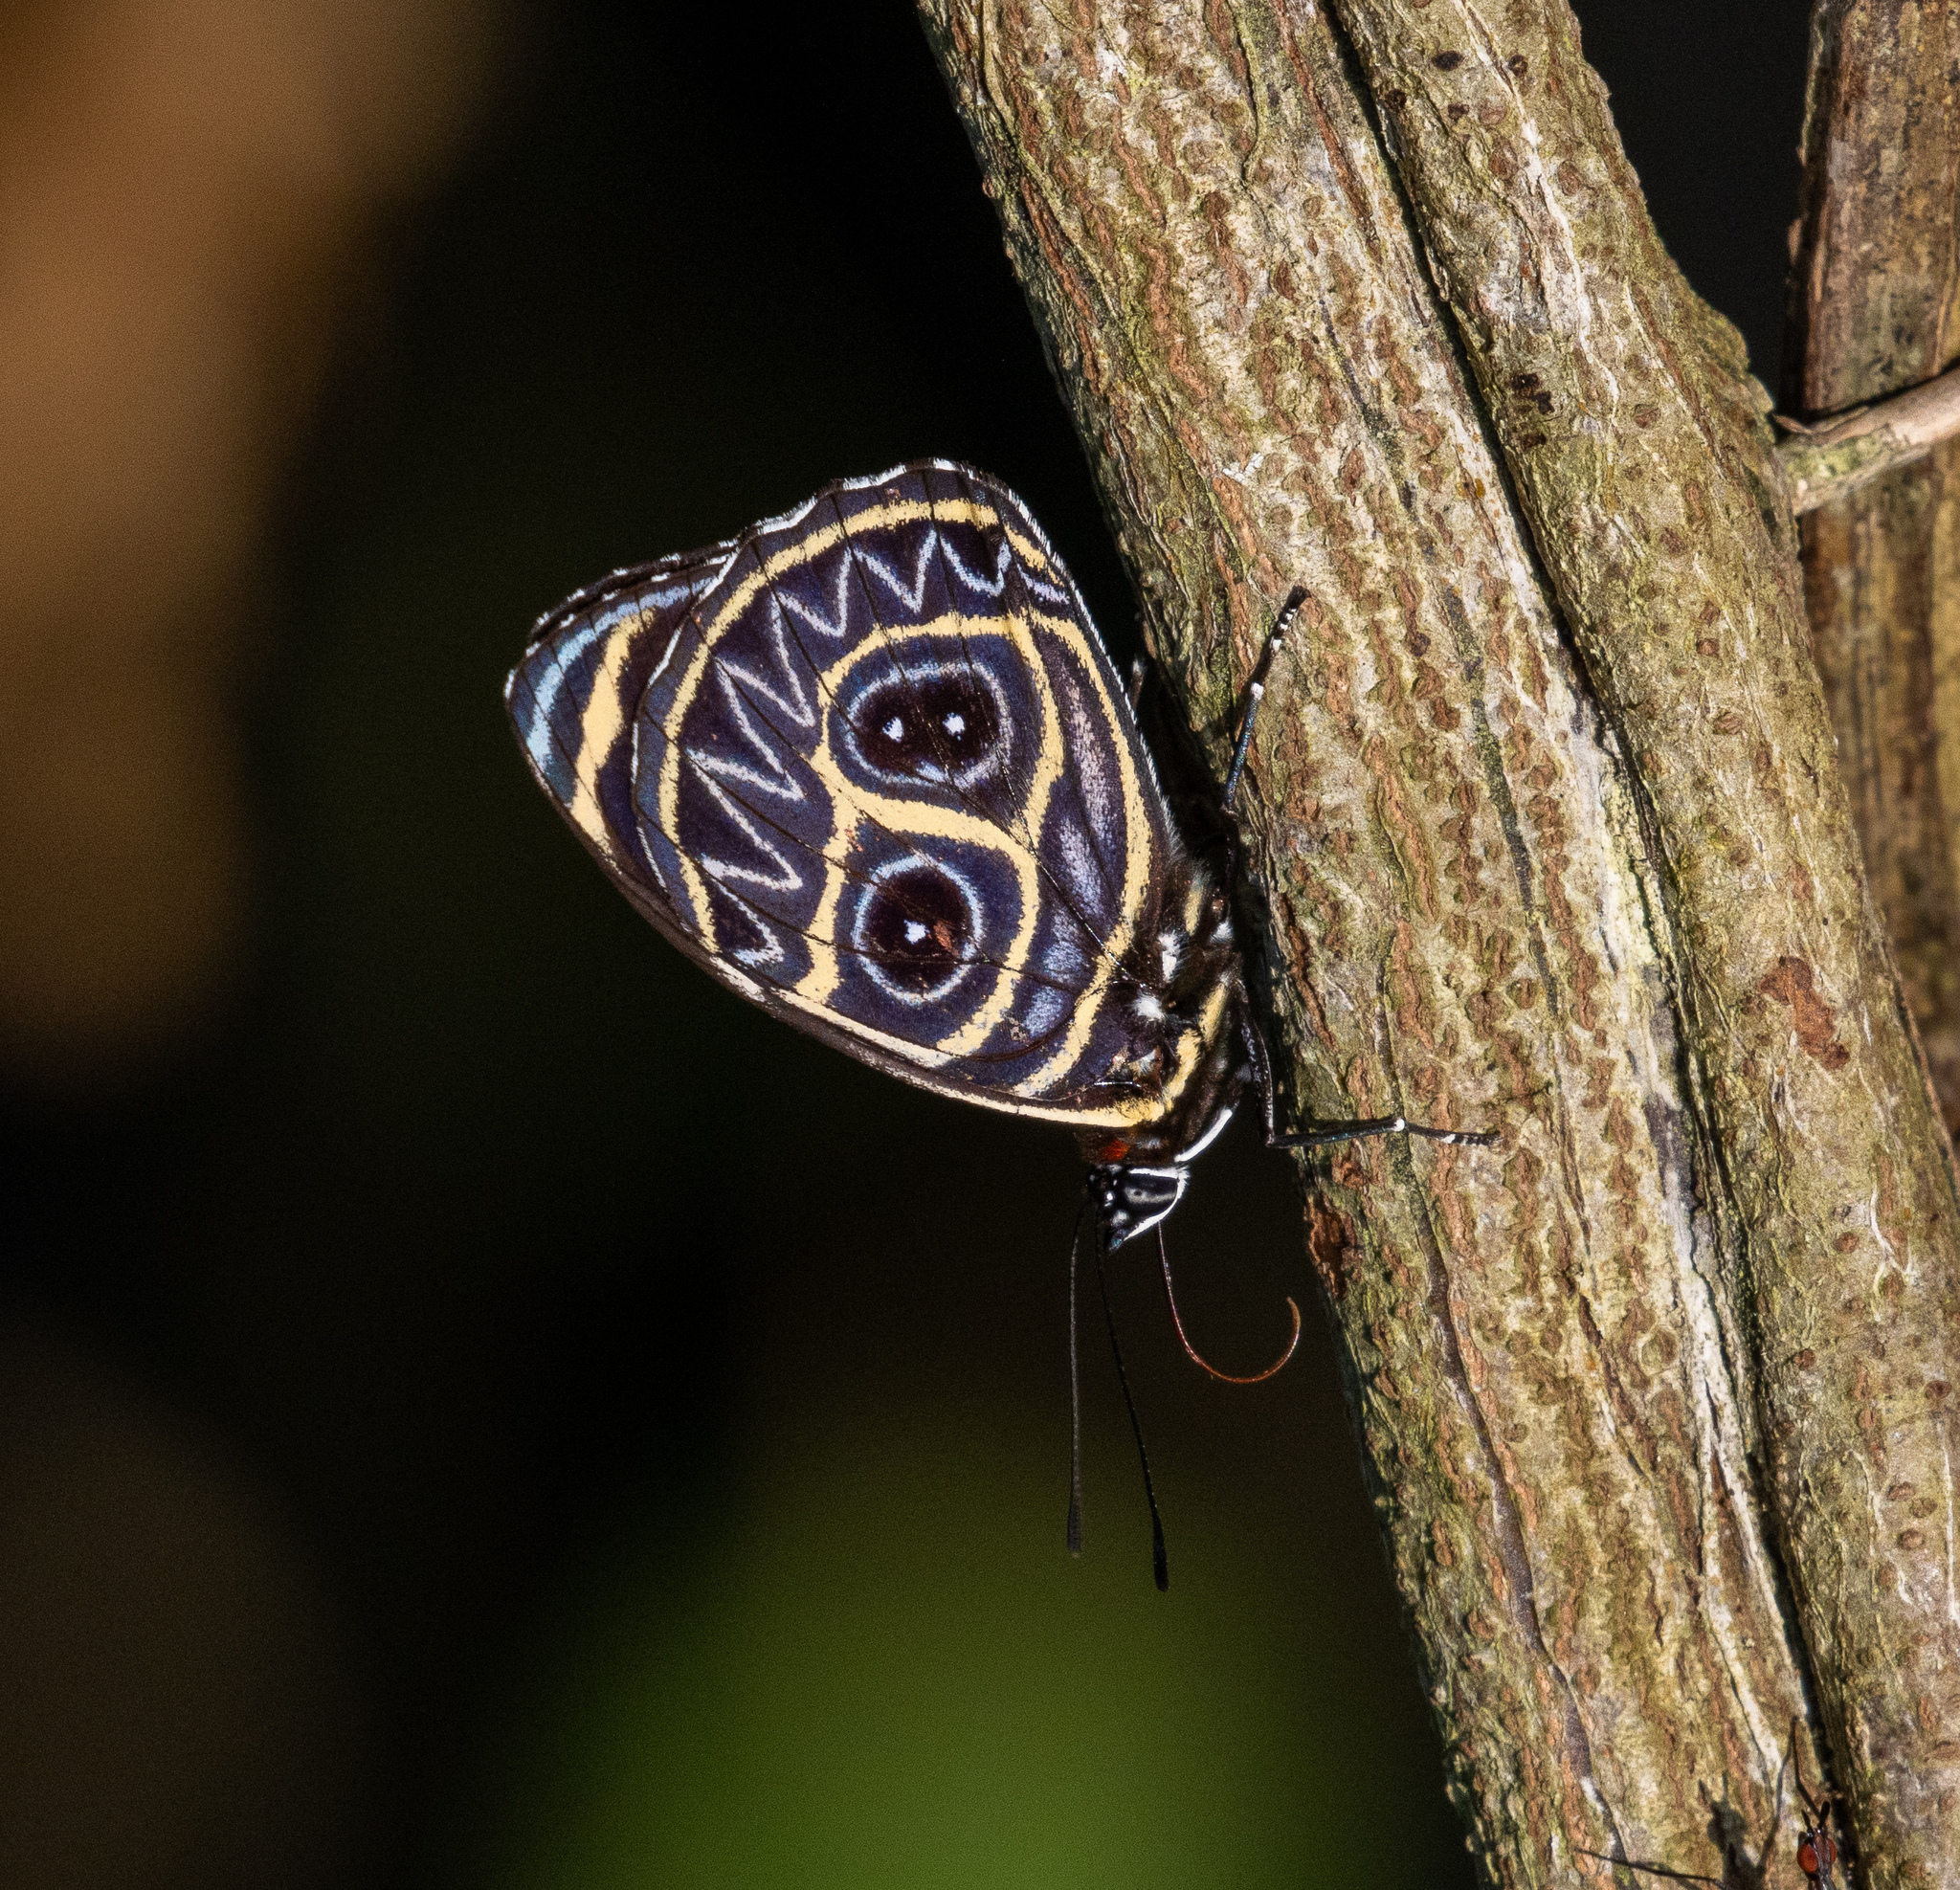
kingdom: Animalia
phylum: Arthropoda
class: Insecta
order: Lepidoptera
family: Nymphalidae
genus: Catagramma
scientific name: Catagramma Callicore sorana
